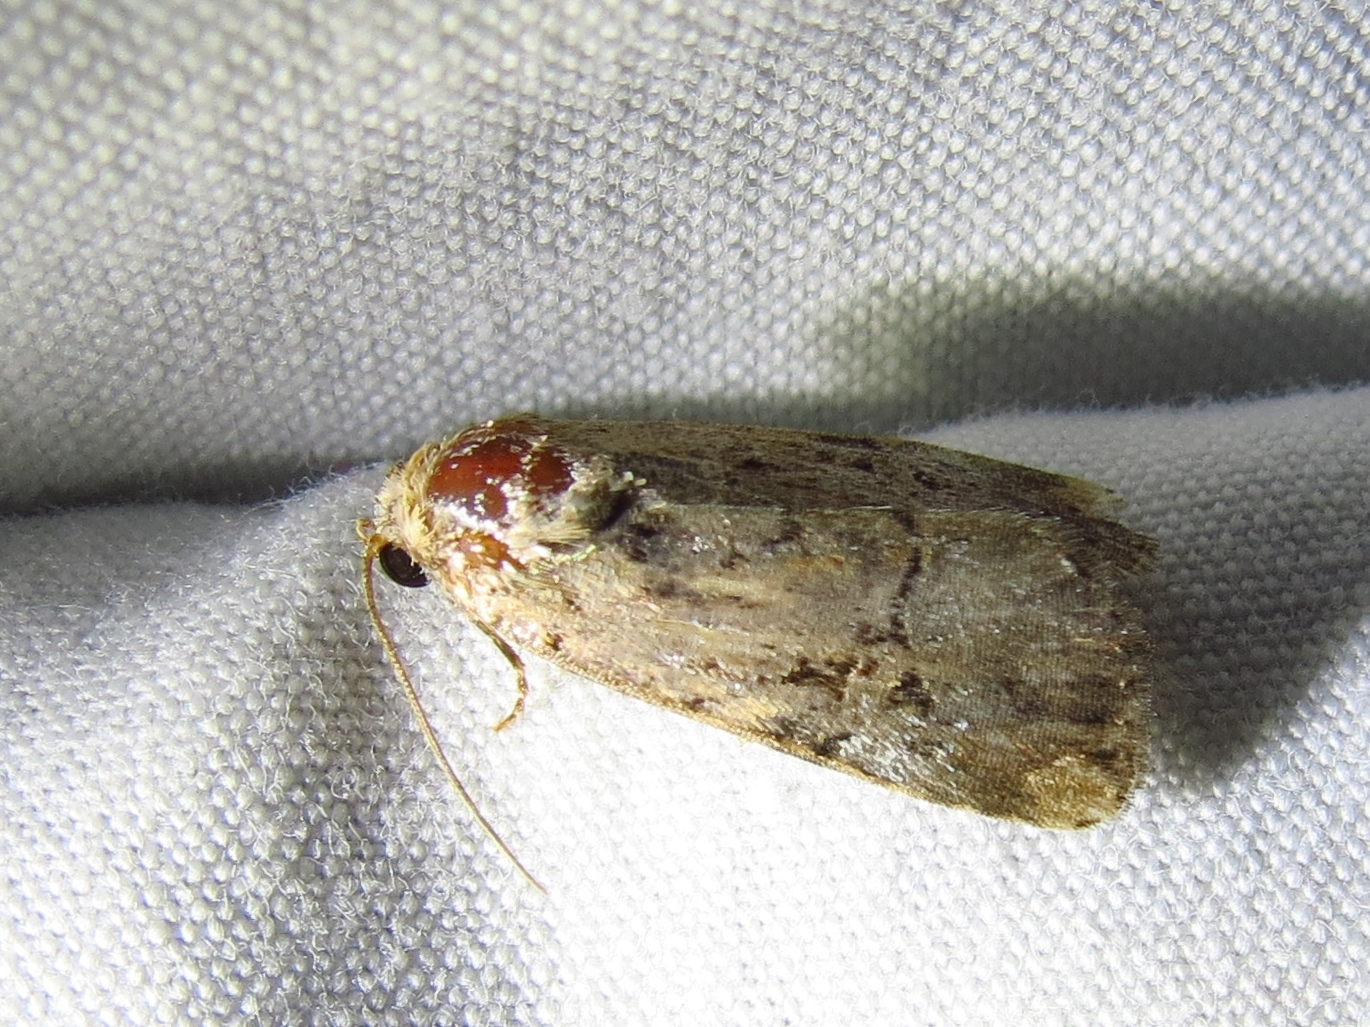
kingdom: Animalia
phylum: Arthropoda
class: Insecta
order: Lepidoptera
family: Noctuidae
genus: Elaphria
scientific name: Elaphria chalcedonia
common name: Chalcedony midget
